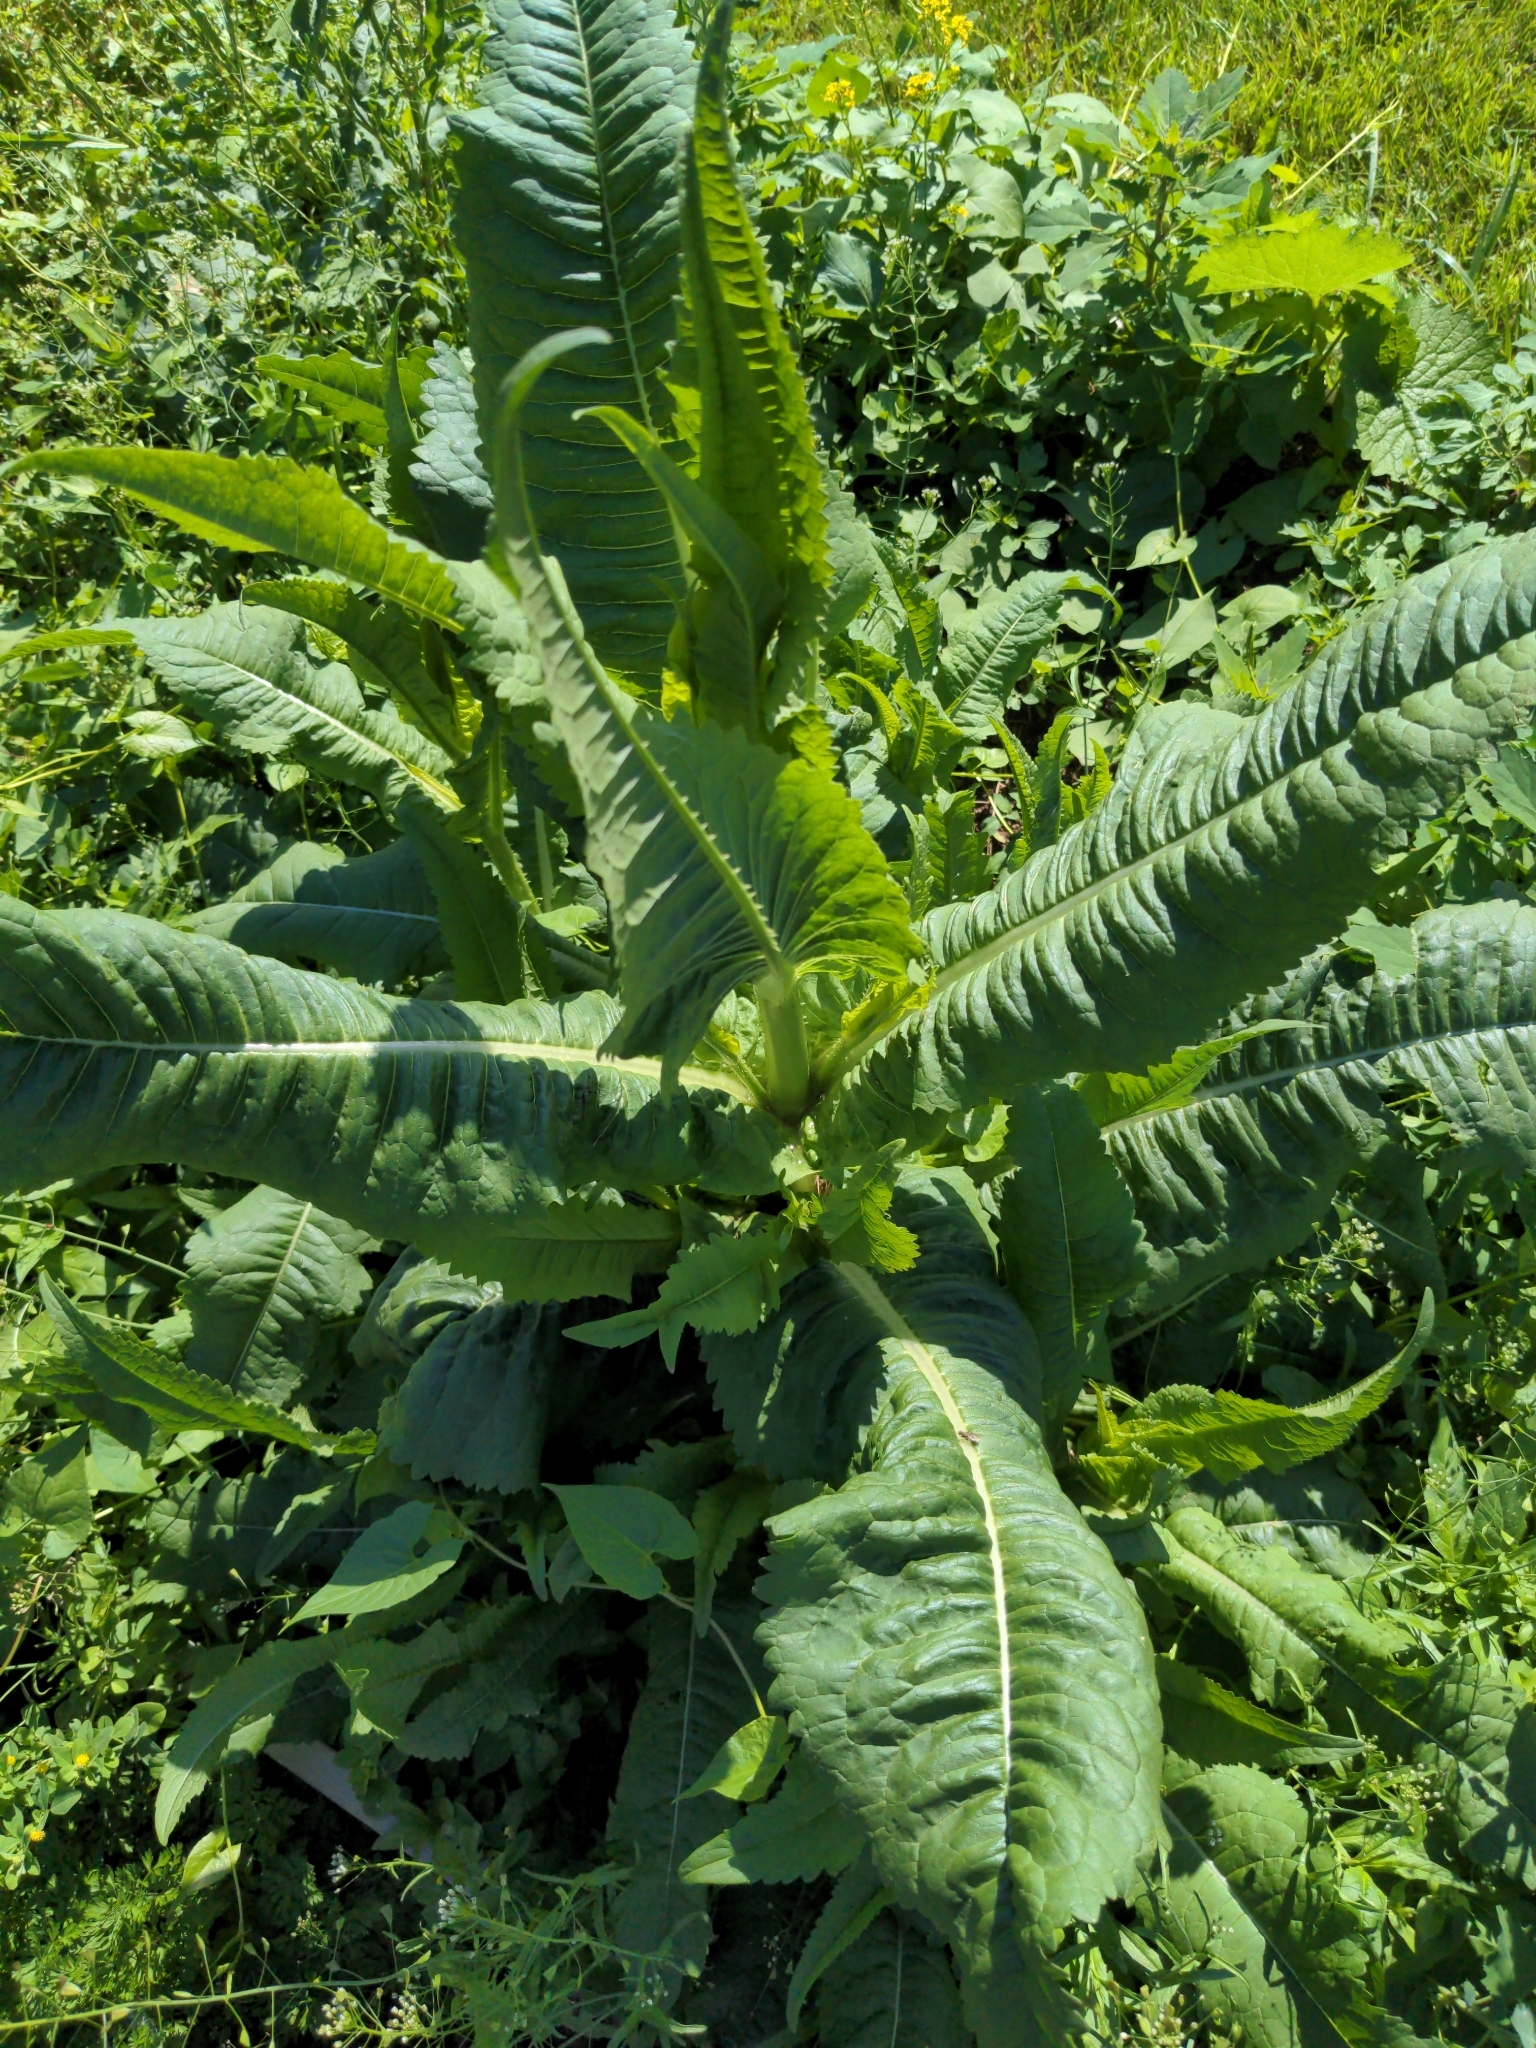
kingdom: Plantae
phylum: Tracheophyta
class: Magnoliopsida
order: Dipsacales
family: Caprifoliaceae
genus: Dipsacus
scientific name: Dipsacus fullonum
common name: Teasel
